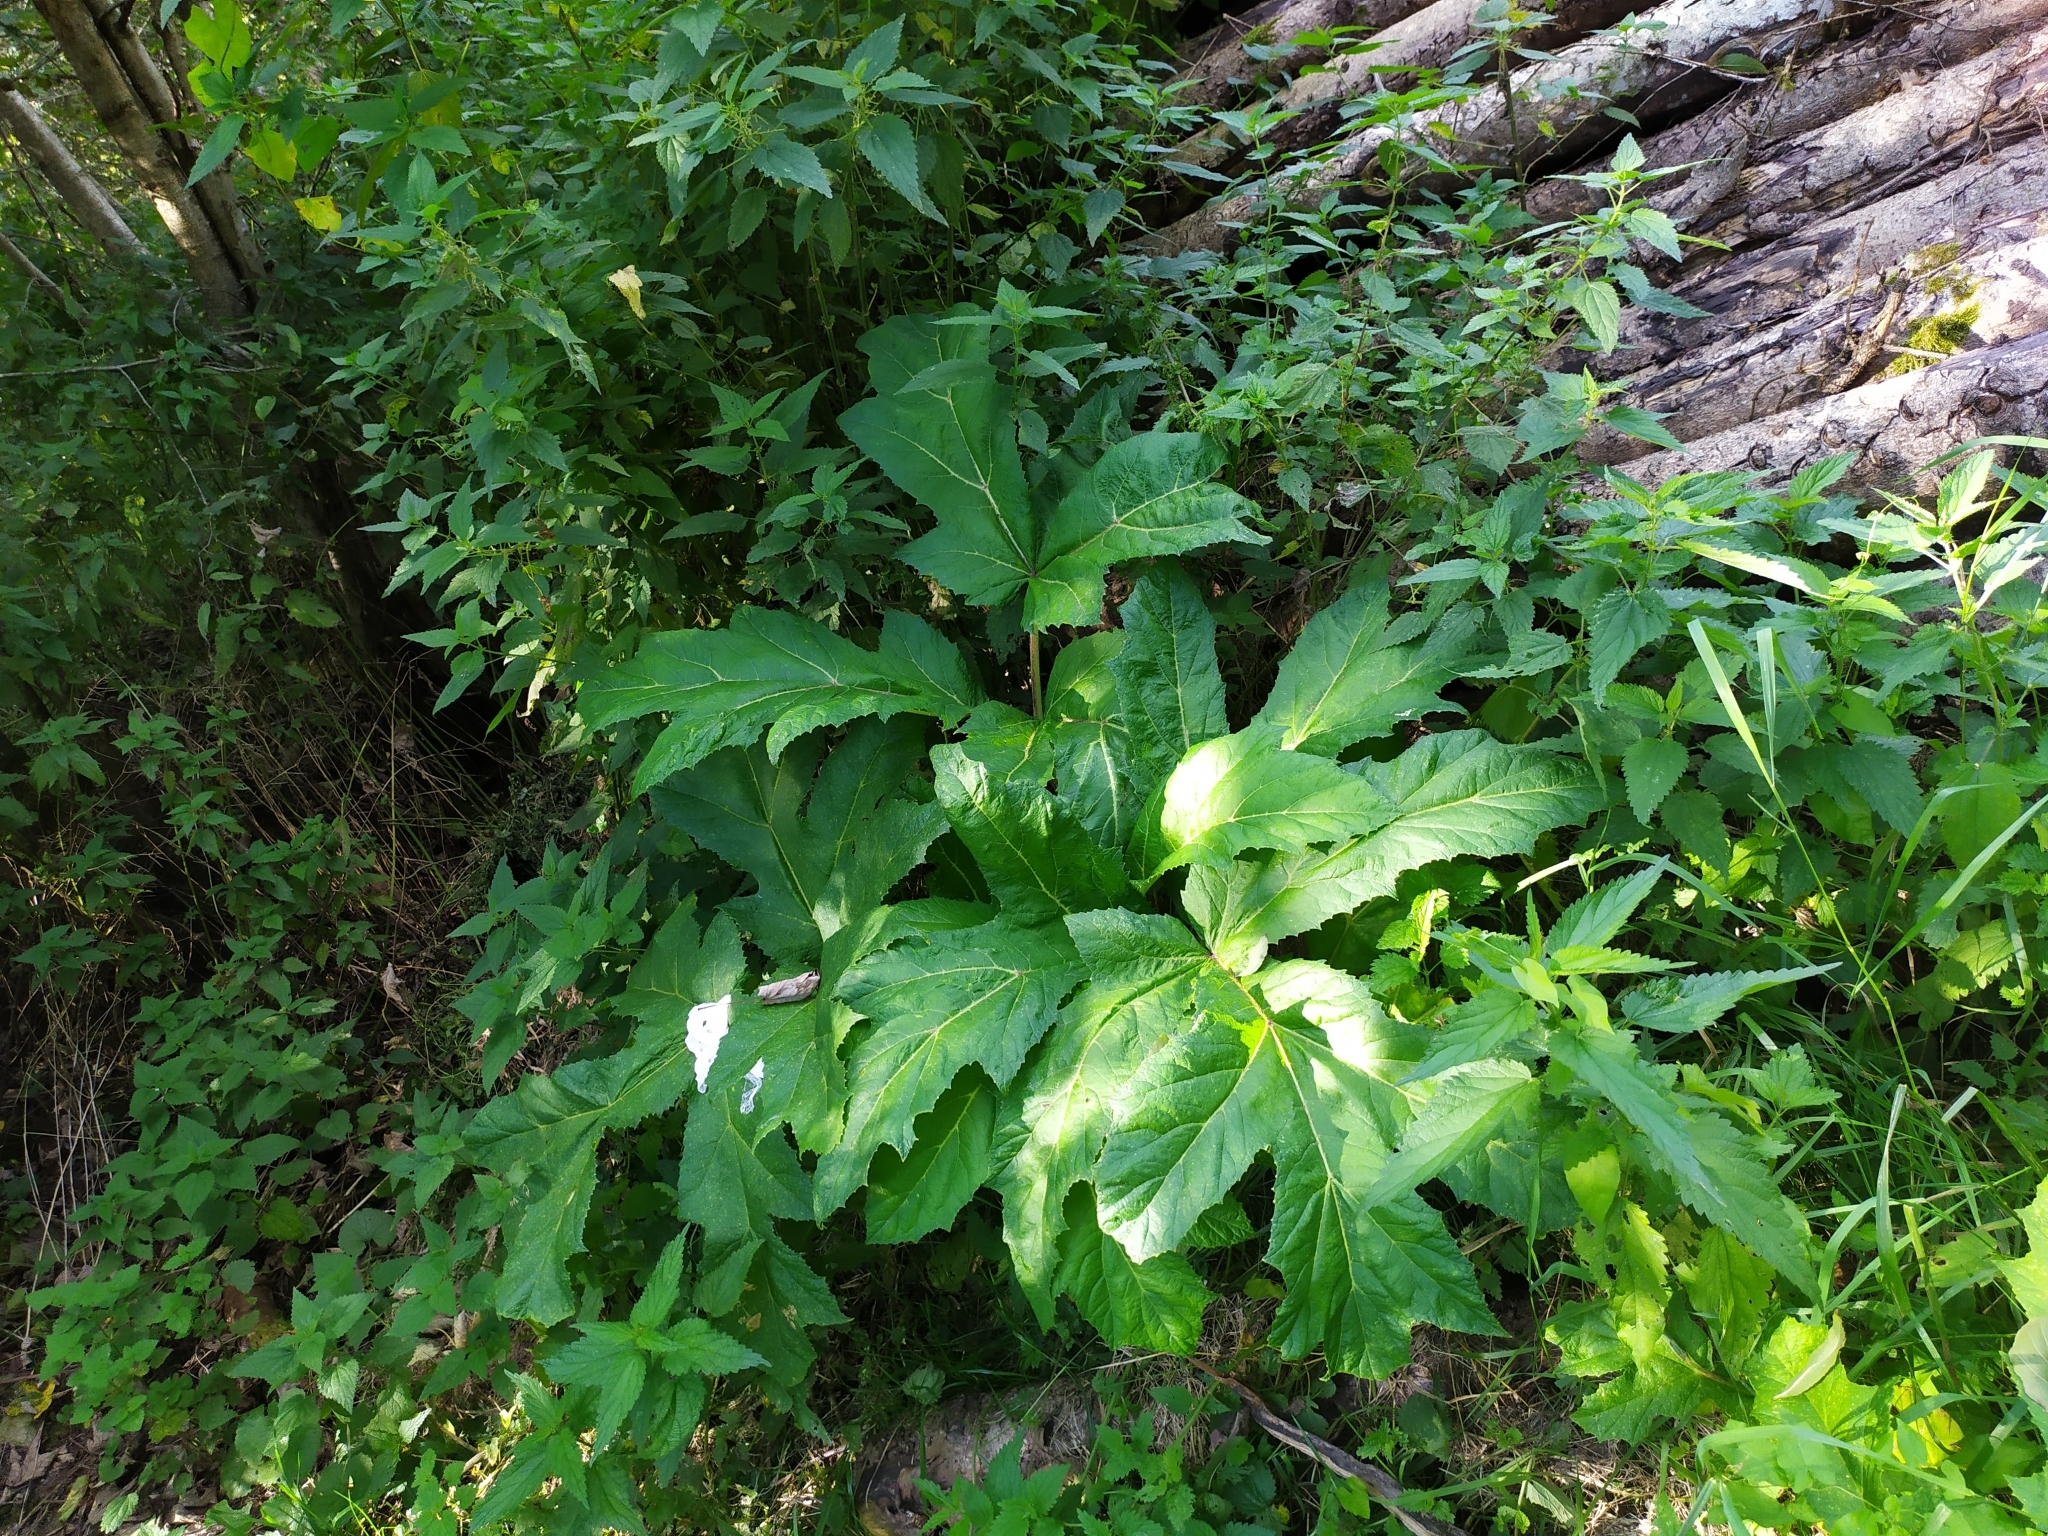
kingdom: Plantae
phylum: Tracheophyta
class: Magnoliopsida
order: Apiales
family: Apiaceae
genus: Heracleum
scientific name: Heracleum mantegazzianum
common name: Giant hogweed
